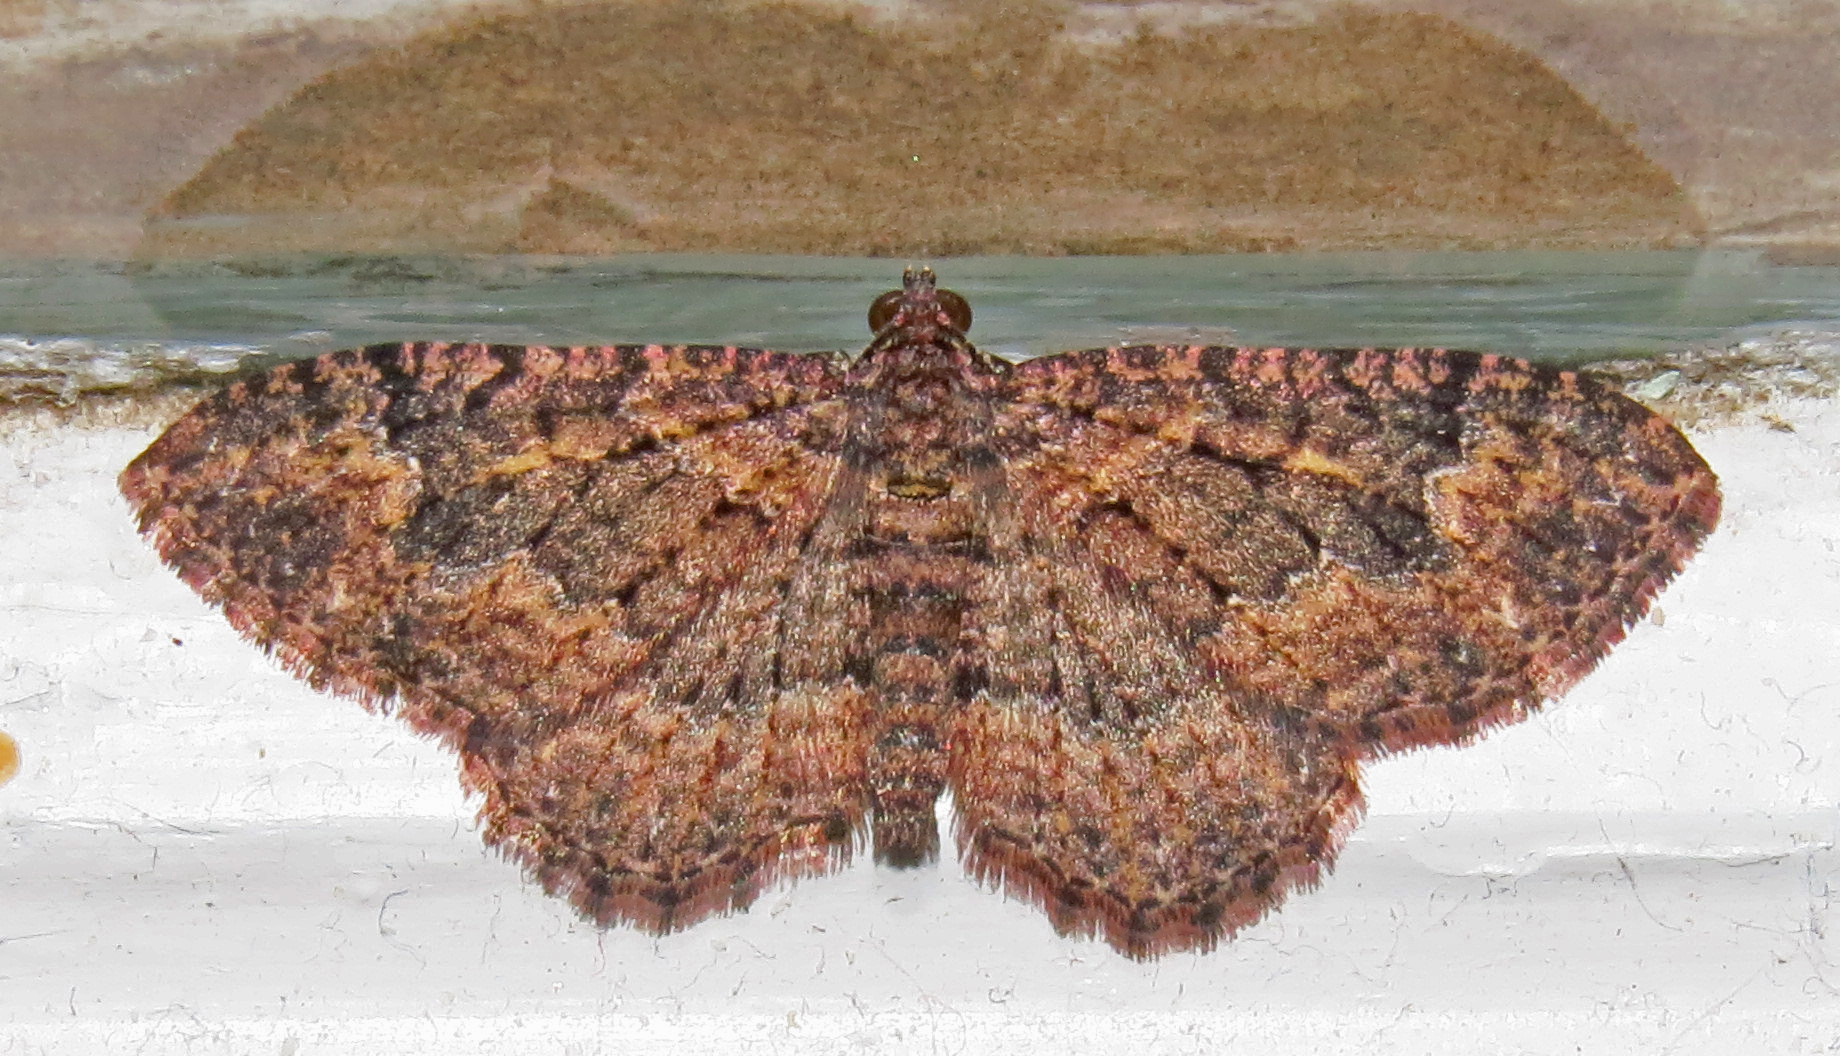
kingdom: Animalia
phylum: Arthropoda
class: Insecta
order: Lepidoptera
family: Geometridae
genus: Disclisioprocta
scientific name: Disclisioprocta stellata
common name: Somber carpet
